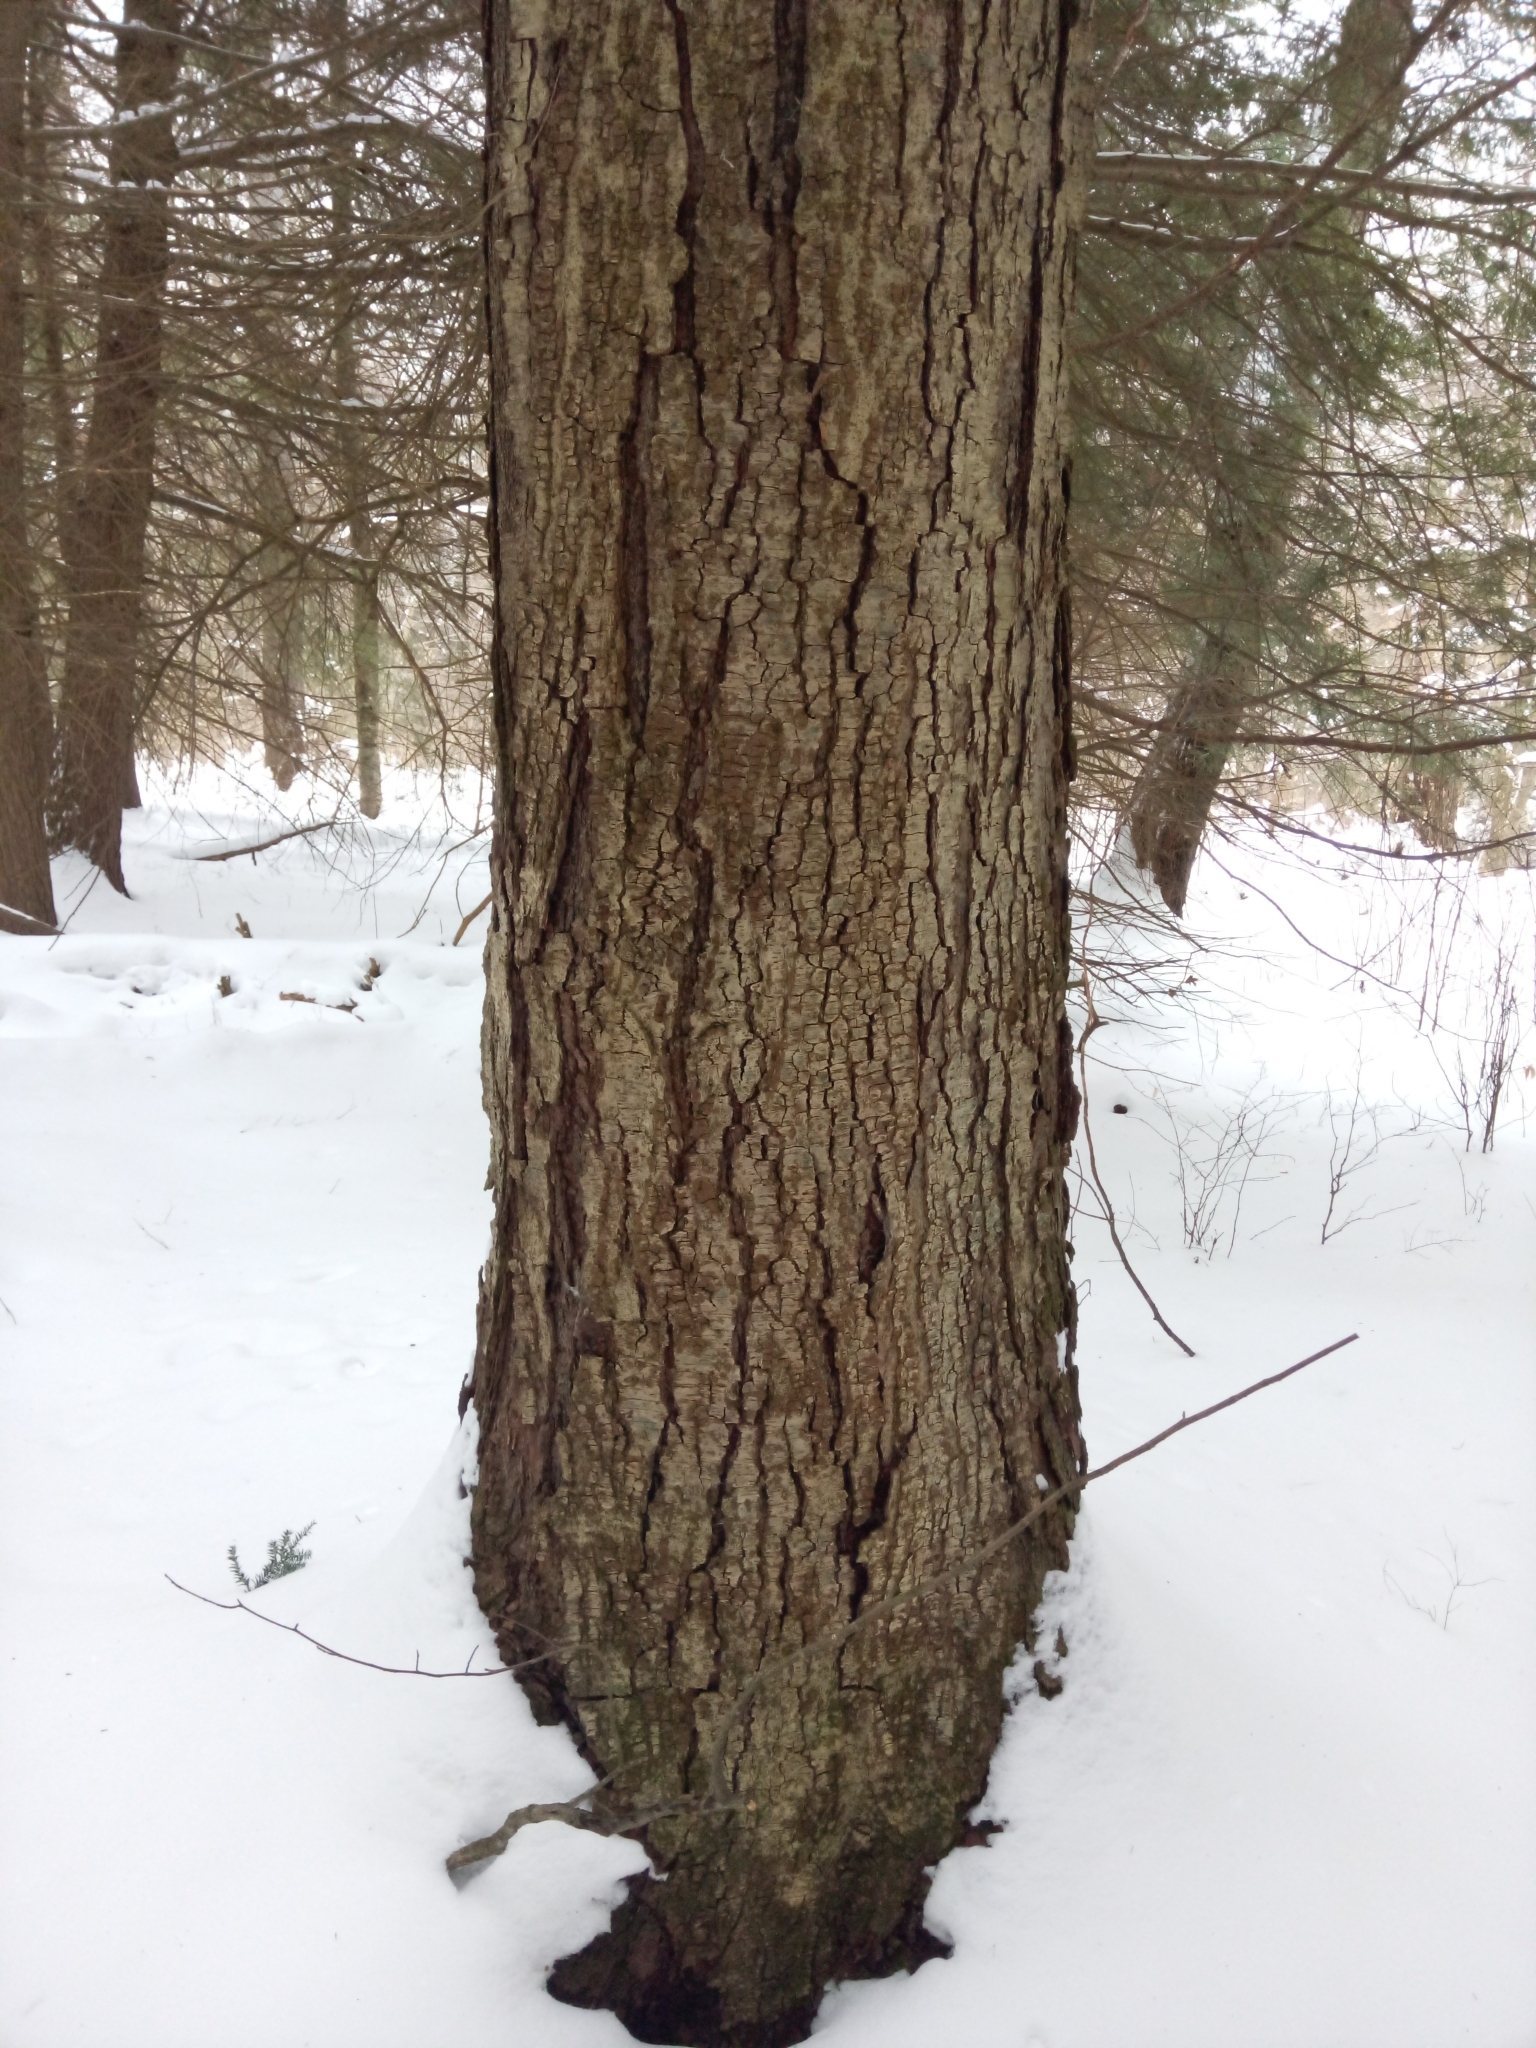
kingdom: Plantae
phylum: Tracheophyta
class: Magnoliopsida
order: Fagales
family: Betulaceae
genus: Betula
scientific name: Betula lenta
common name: Black birch
